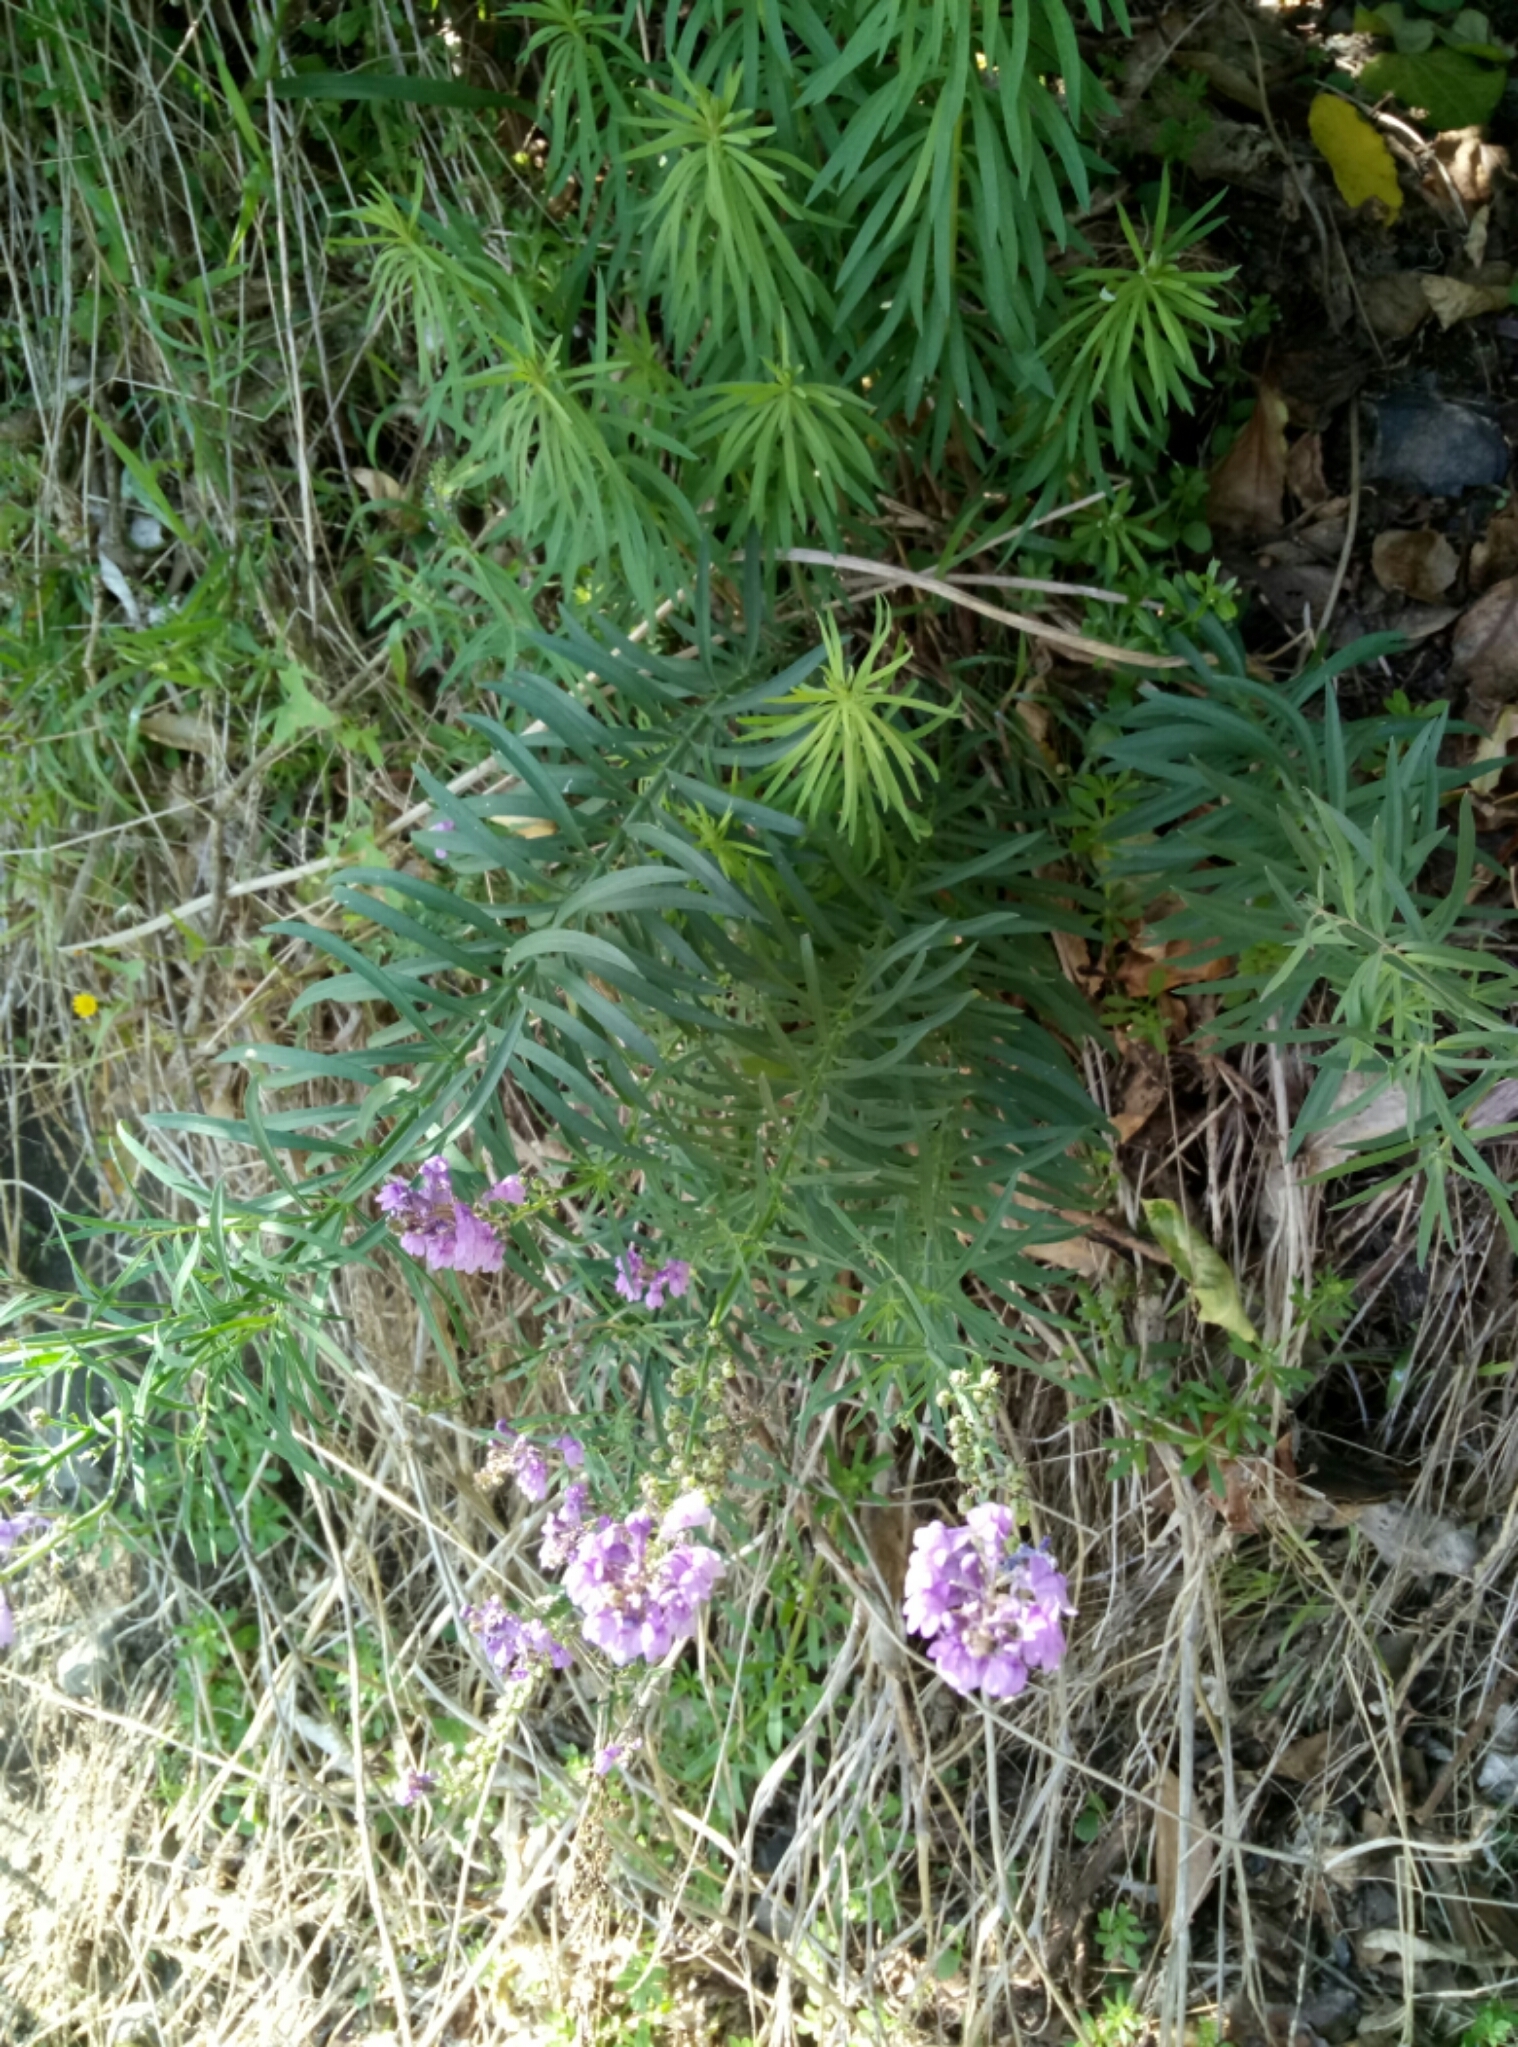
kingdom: Plantae
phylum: Tracheophyta
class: Magnoliopsida
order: Lamiales
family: Plantaginaceae
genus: Linaria
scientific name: Linaria purpurea
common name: Purple toadflax
